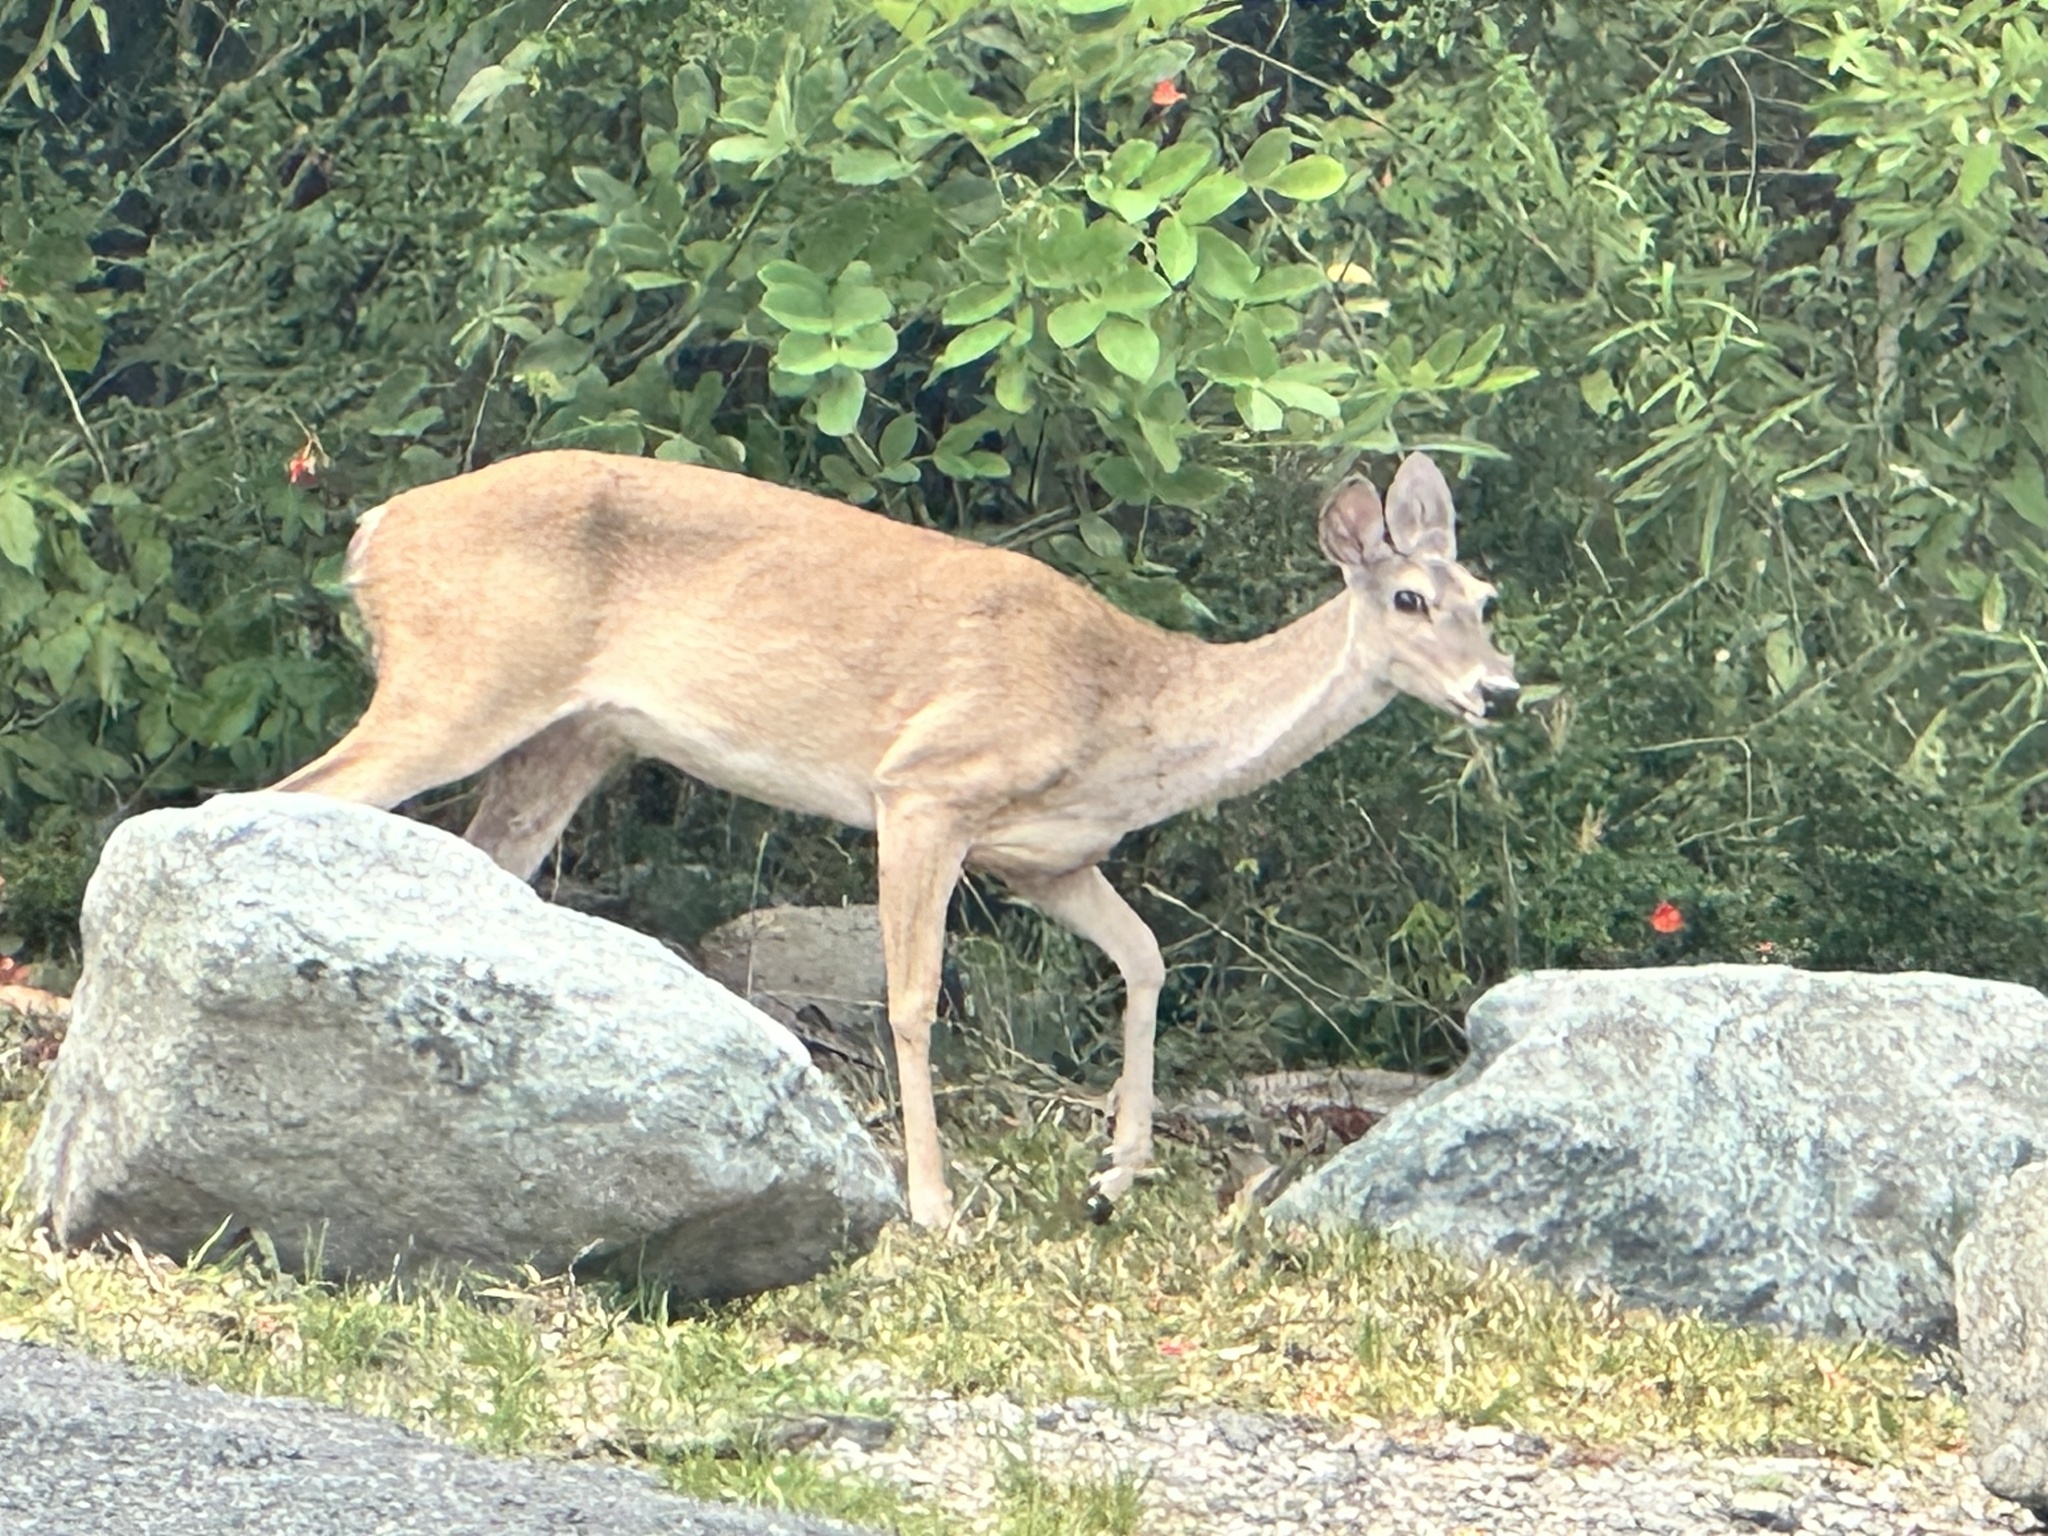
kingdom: Animalia
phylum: Chordata
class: Mammalia
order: Artiodactyla
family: Cervidae
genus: Odocoileus
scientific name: Odocoileus virginianus
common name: White-tailed deer
